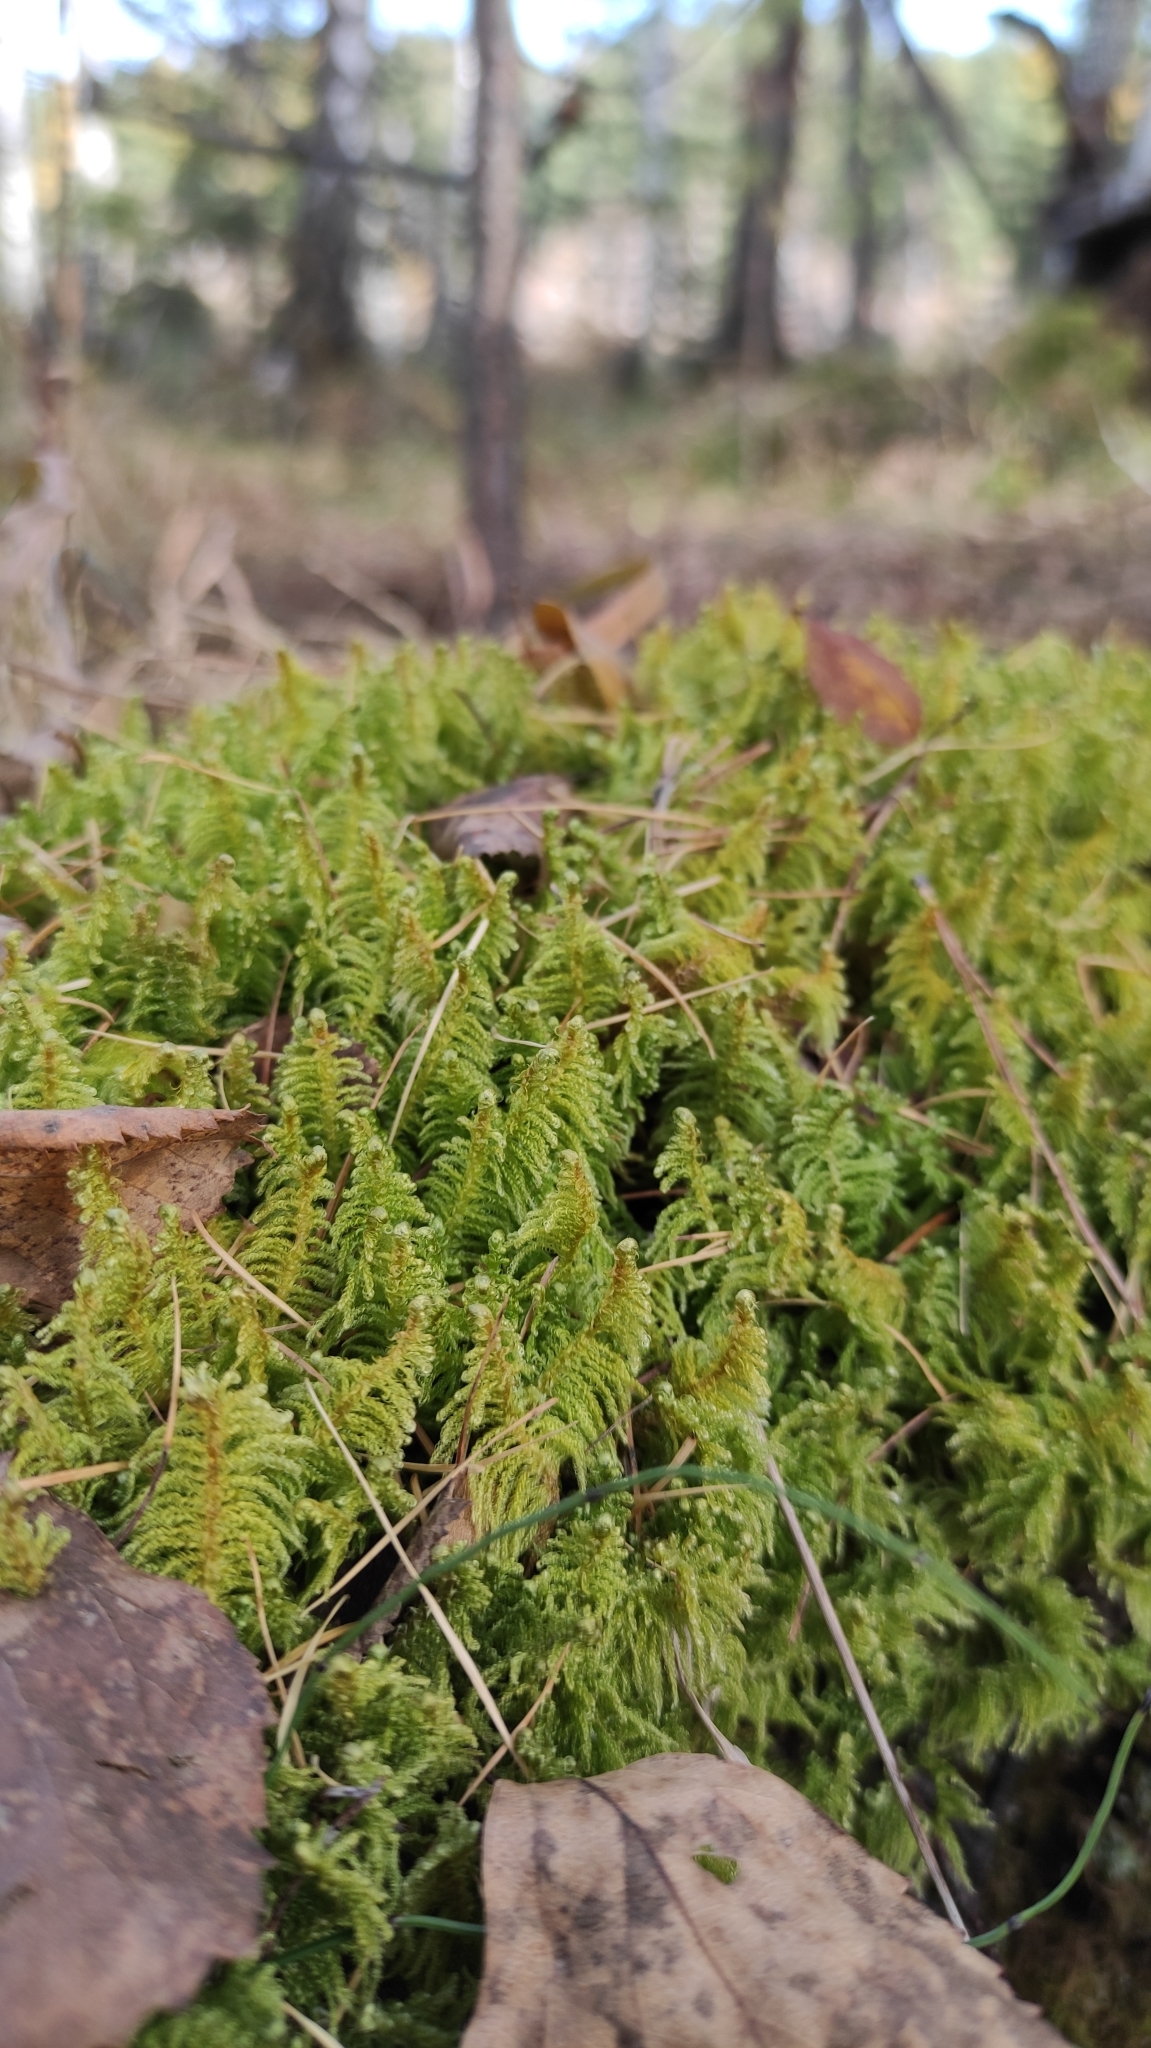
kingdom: Plantae
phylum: Bryophyta
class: Bryopsida
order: Hypnales
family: Pylaisiaceae
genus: Ptilium
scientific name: Ptilium crista-castrensis
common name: Knight's plume moss
